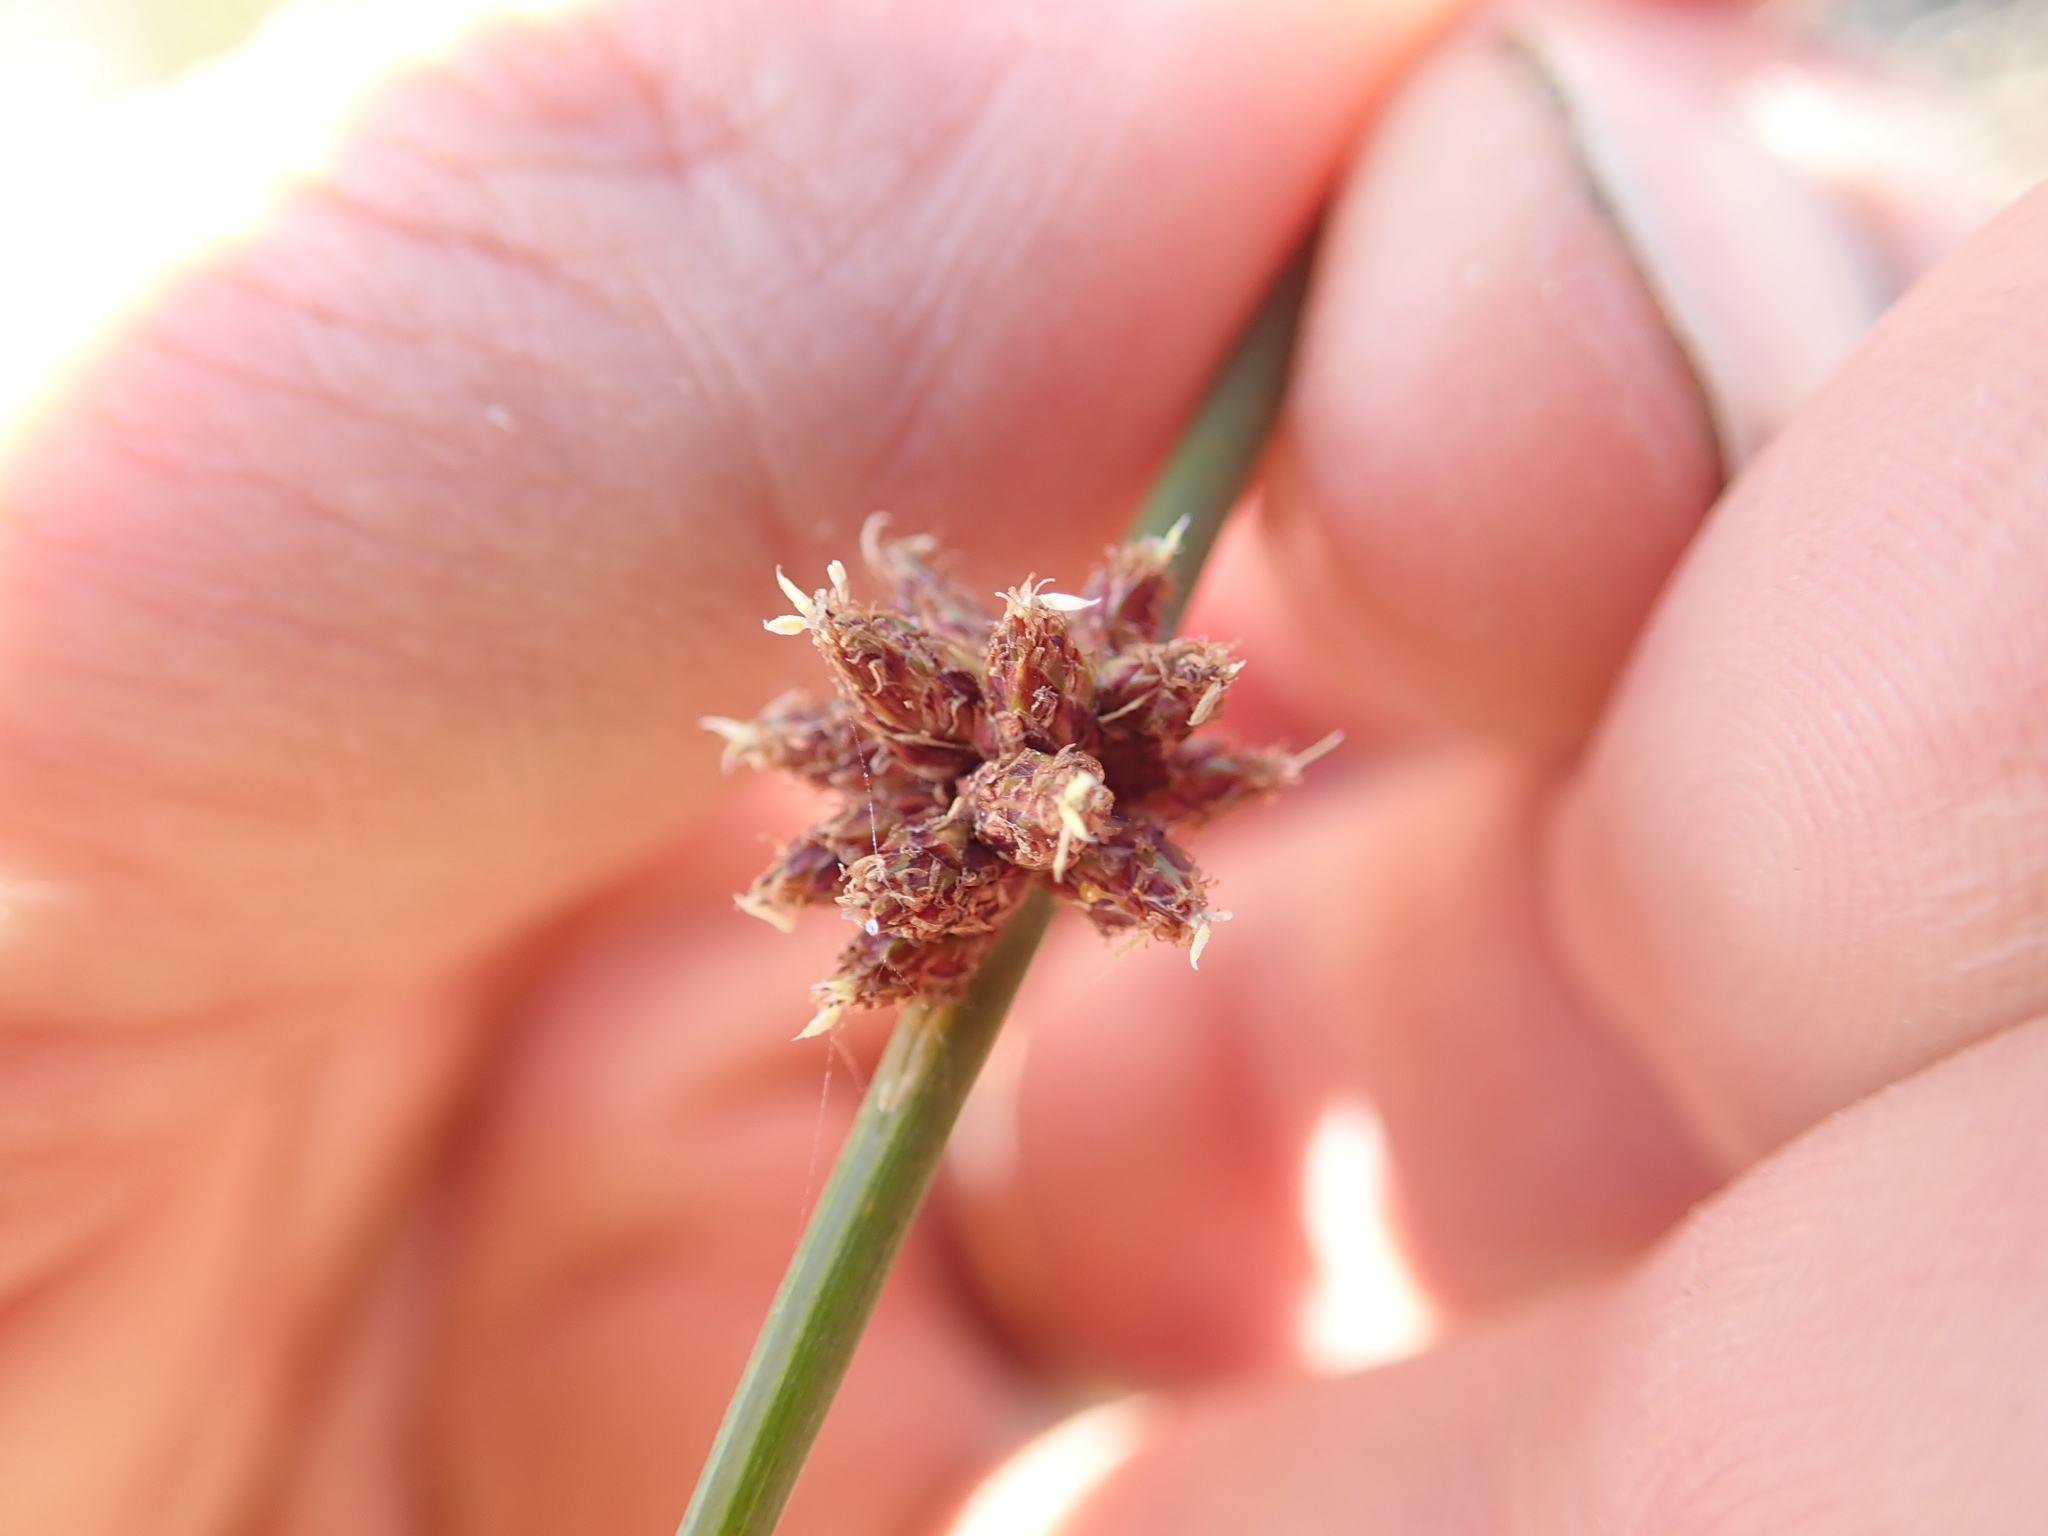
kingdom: Plantae
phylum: Tracheophyta
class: Liliopsida
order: Poales
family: Cyperaceae
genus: Ficinia
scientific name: Ficinia nodosa
